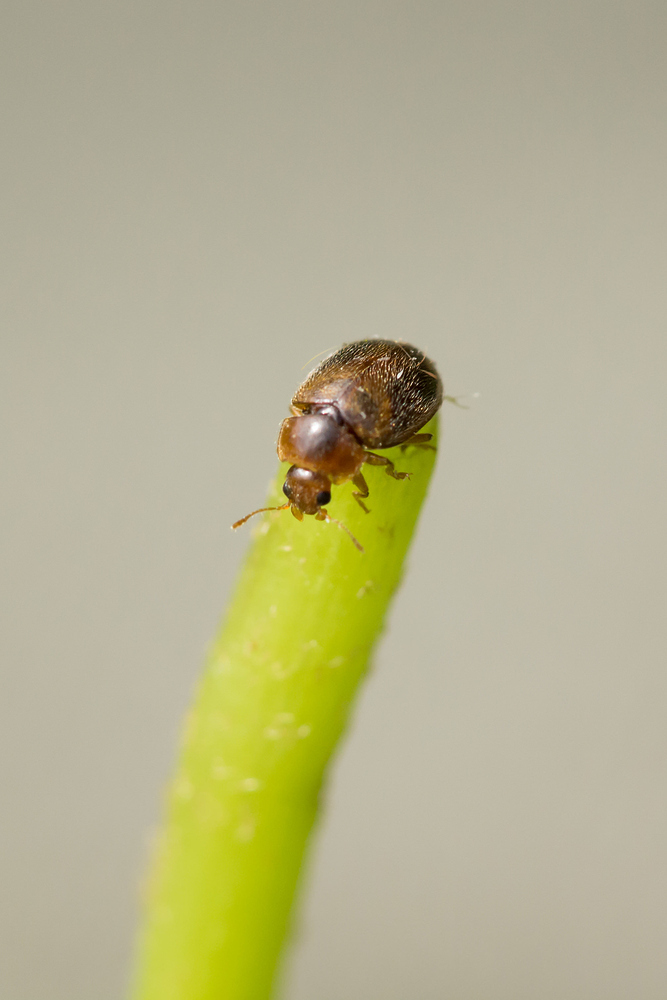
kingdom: Animalia
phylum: Arthropoda
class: Insecta
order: Coleoptera
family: Coccinellidae
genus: Rhyzobius
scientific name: Rhyzobius chrysomeloides
